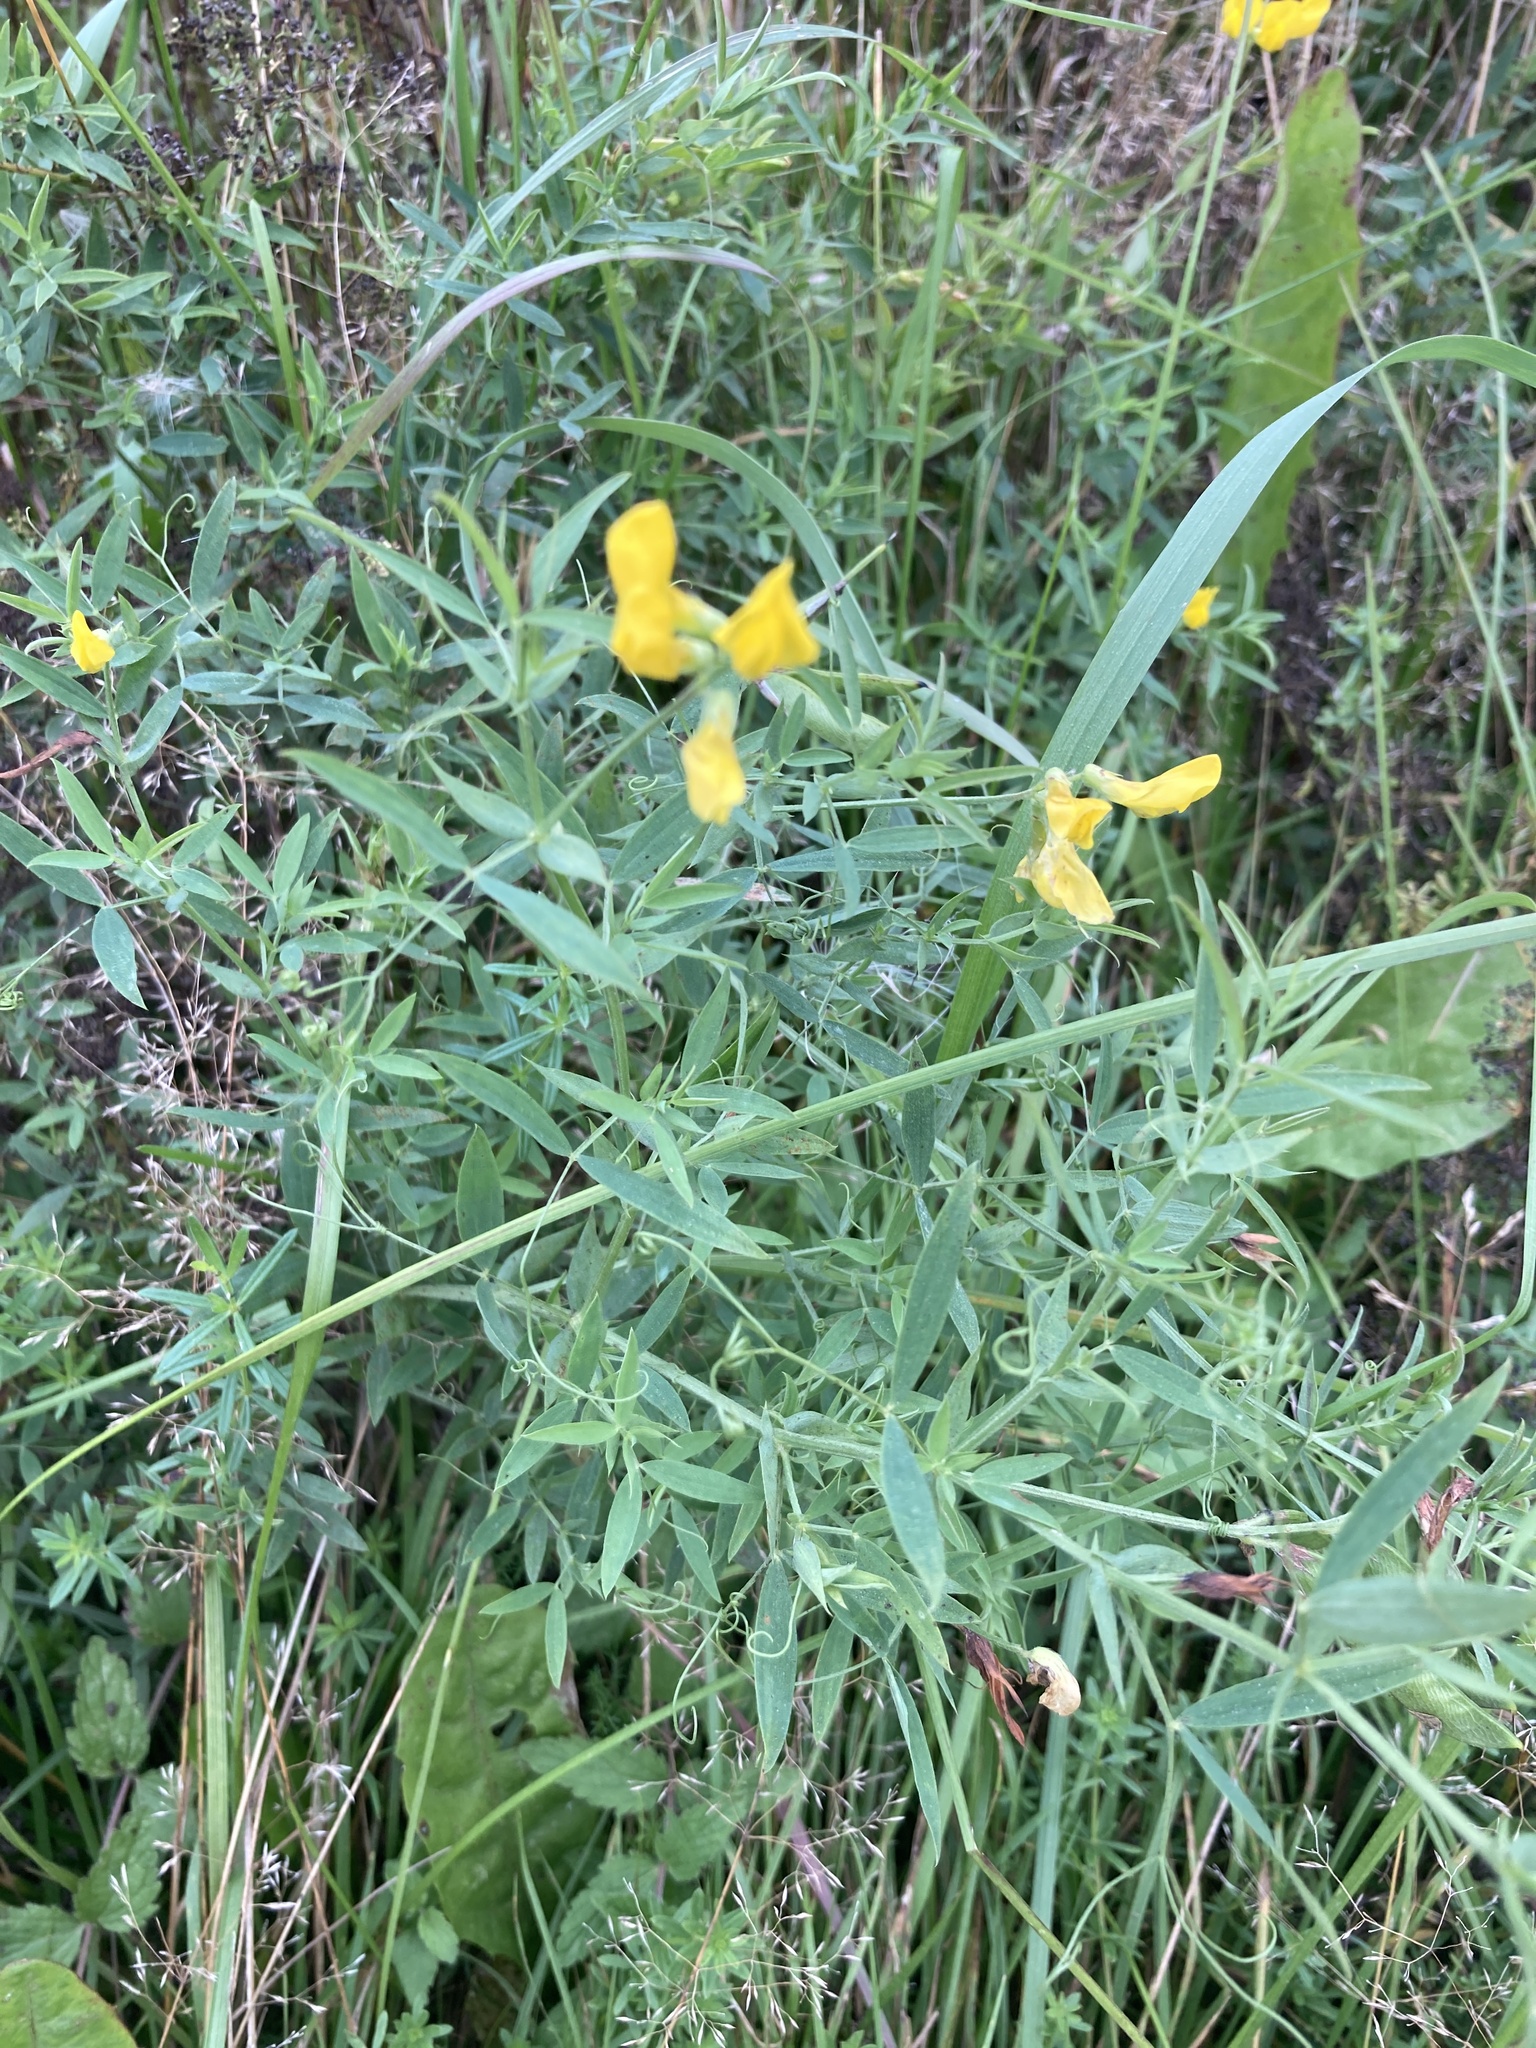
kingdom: Plantae
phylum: Tracheophyta
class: Magnoliopsida
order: Fabales
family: Fabaceae
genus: Lathyrus
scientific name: Lathyrus pratensis
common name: Meadow vetchling
